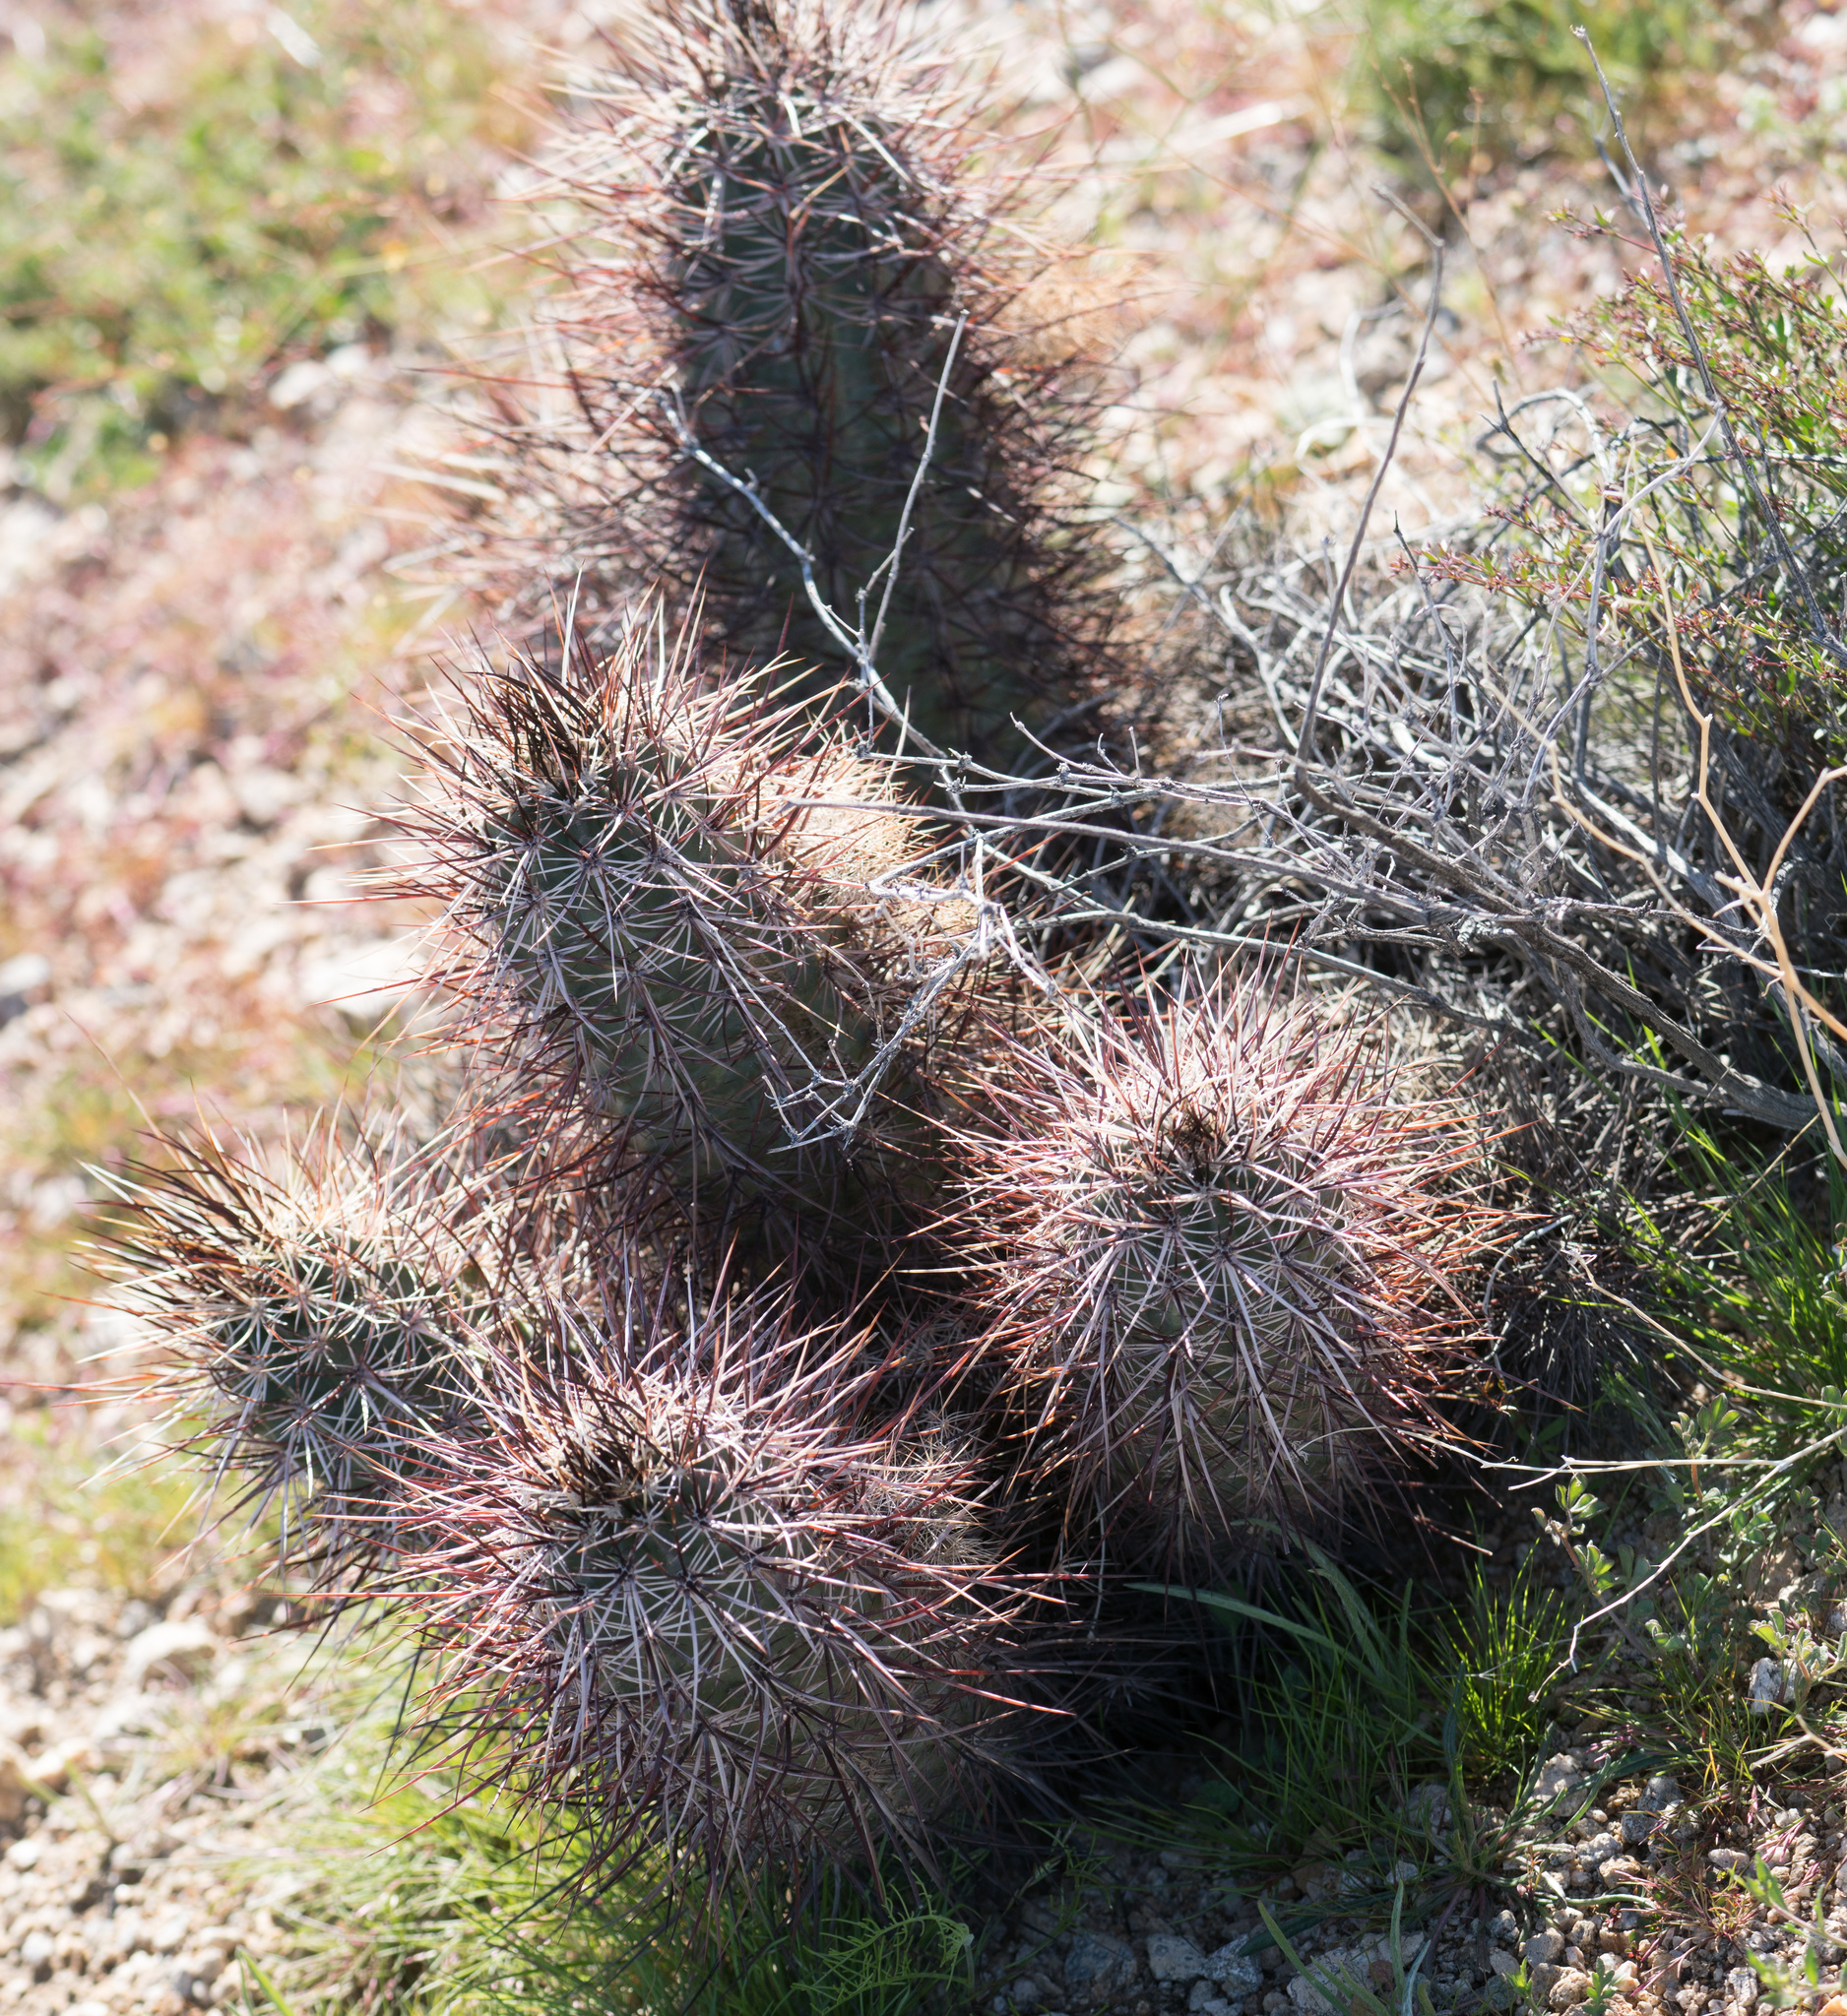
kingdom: Plantae
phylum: Tracheophyta
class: Magnoliopsida
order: Caryophyllales
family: Cactaceae
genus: Echinocereus
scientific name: Echinocereus engelmannii
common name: Engelmann's hedgehog cactus
